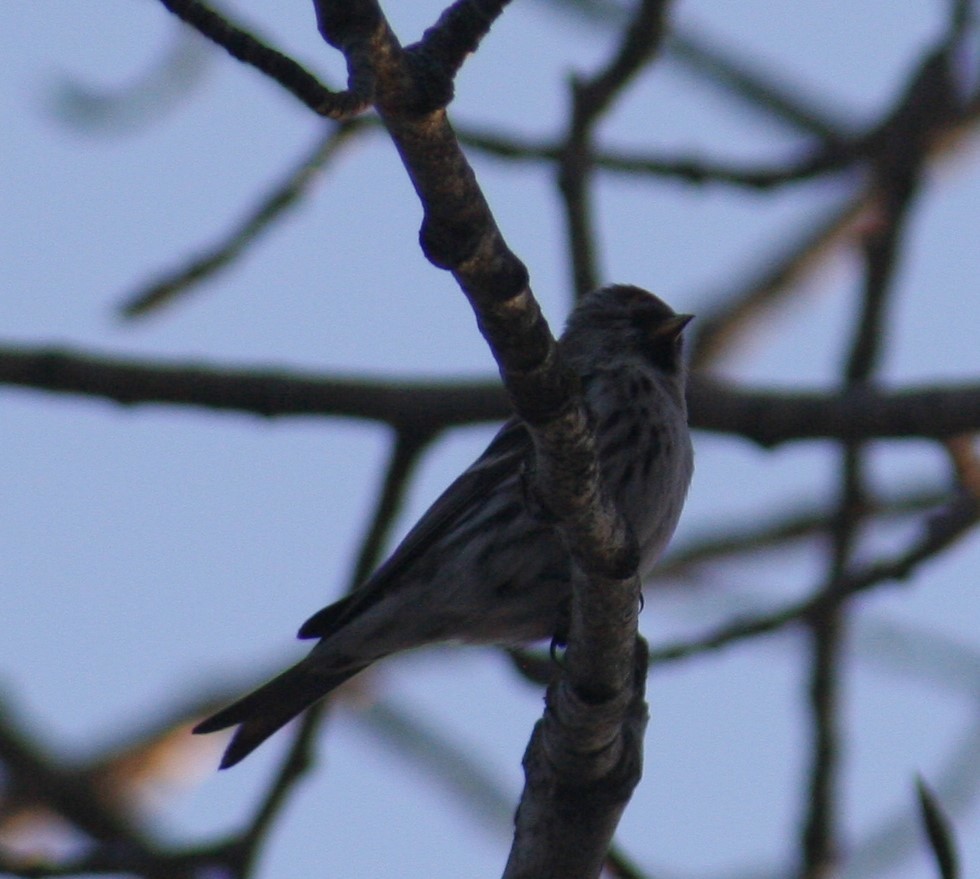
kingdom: Animalia
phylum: Chordata
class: Aves
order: Passeriformes
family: Fringillidae
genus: Acanthis
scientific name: Acanthis flammea
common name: Common redpoll
